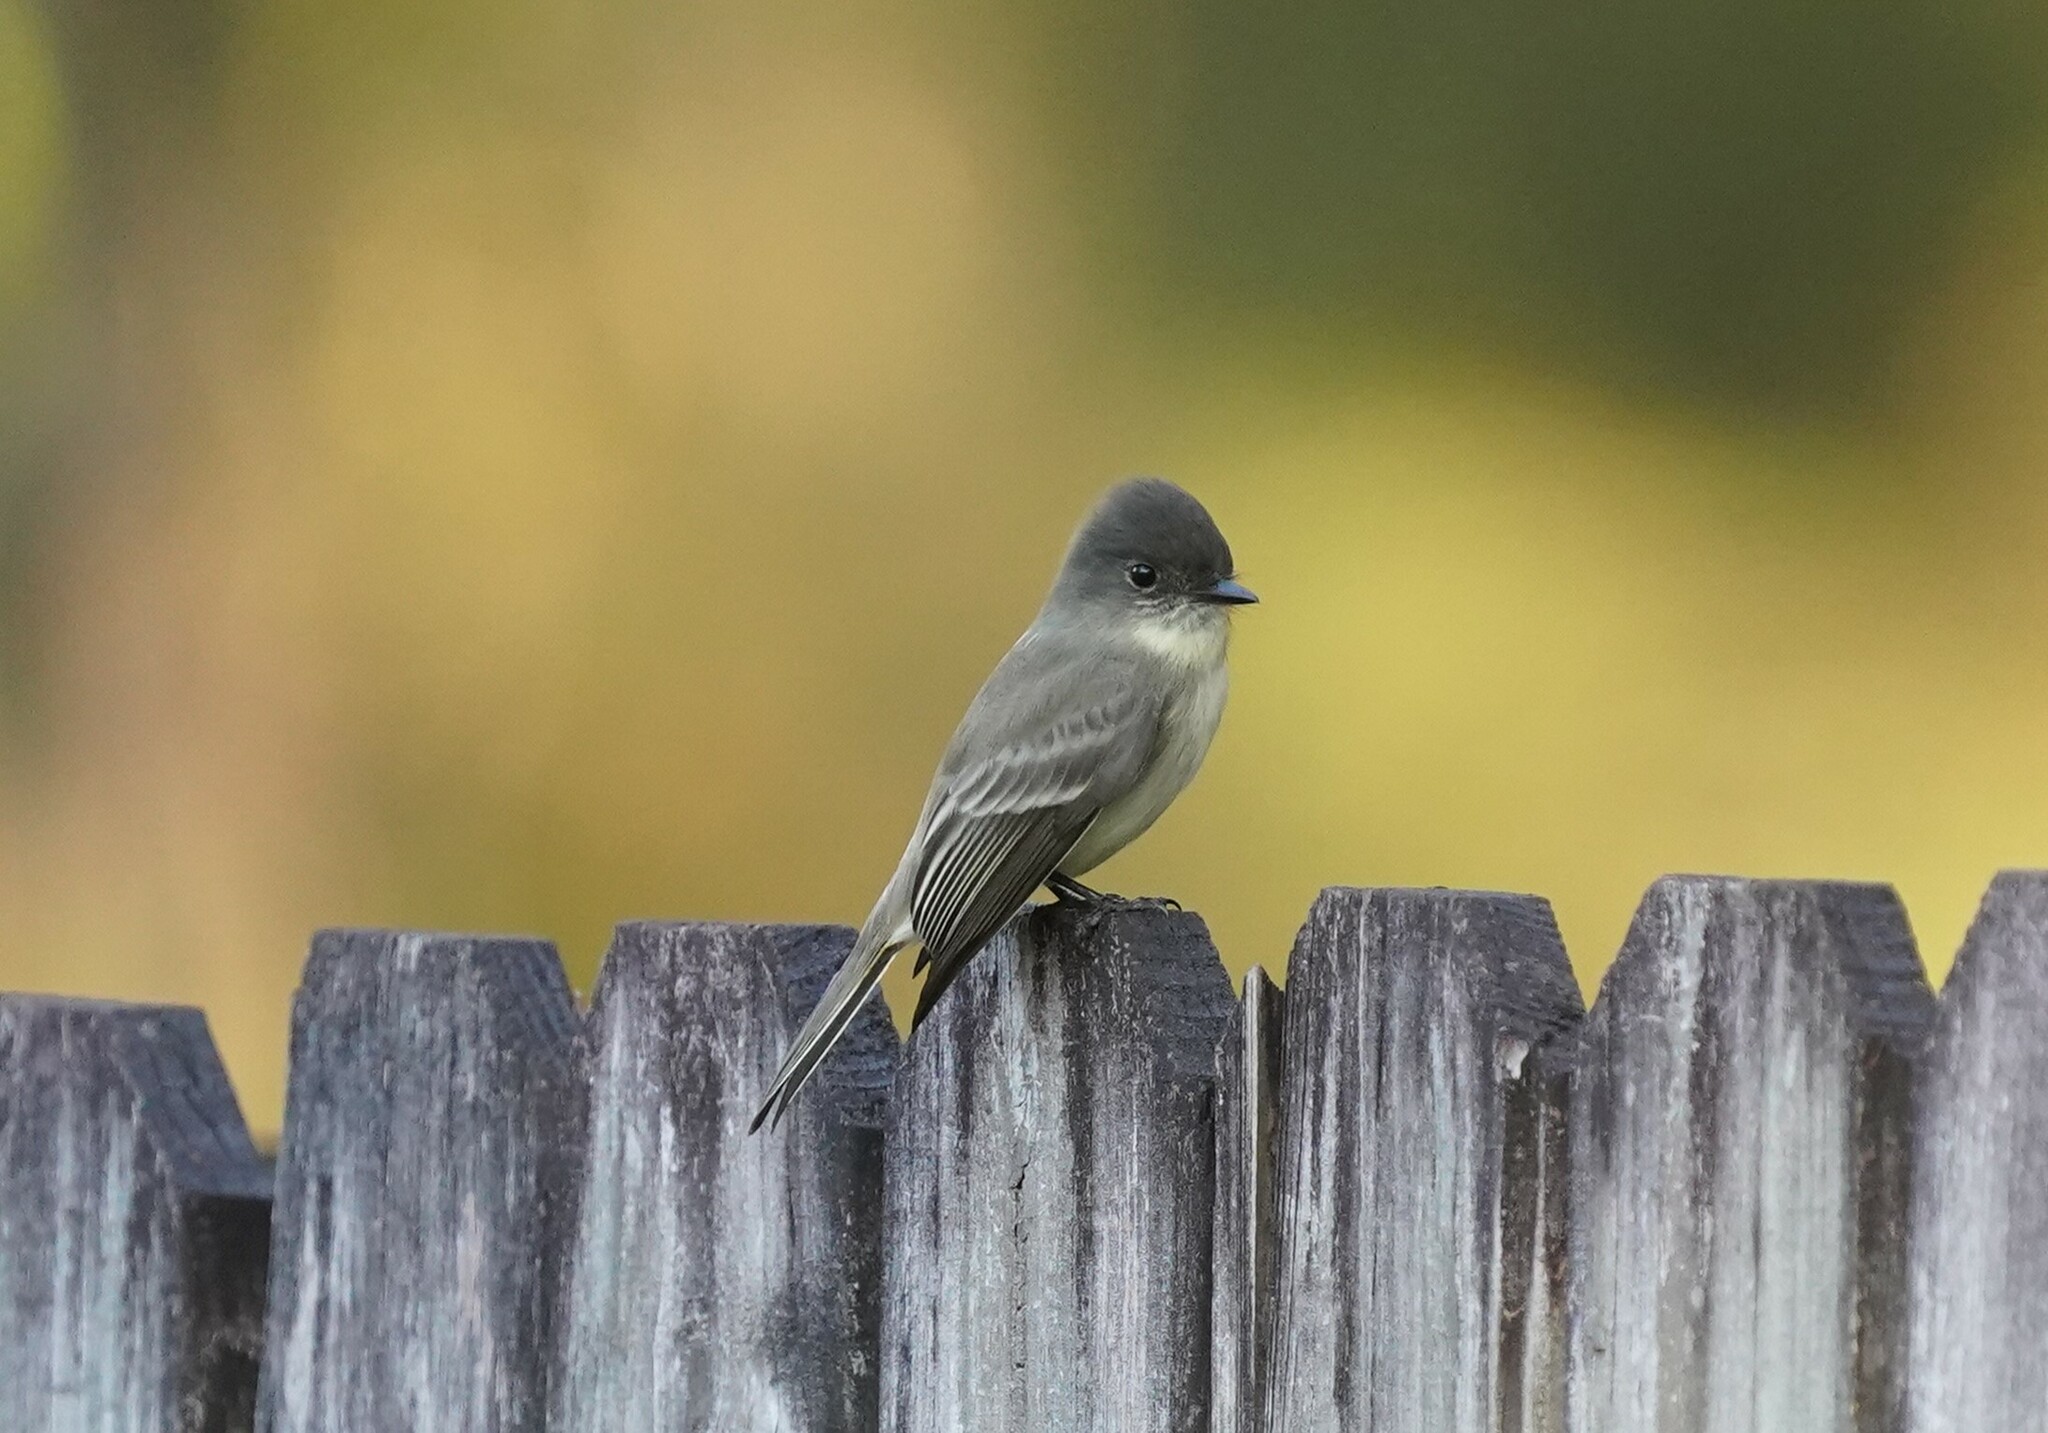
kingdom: Animalia
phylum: Chordata
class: Aves
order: Passeriformes
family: Tyrannidae
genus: Sayornis
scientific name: Sayornis phoebe
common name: Eastern phoebe
